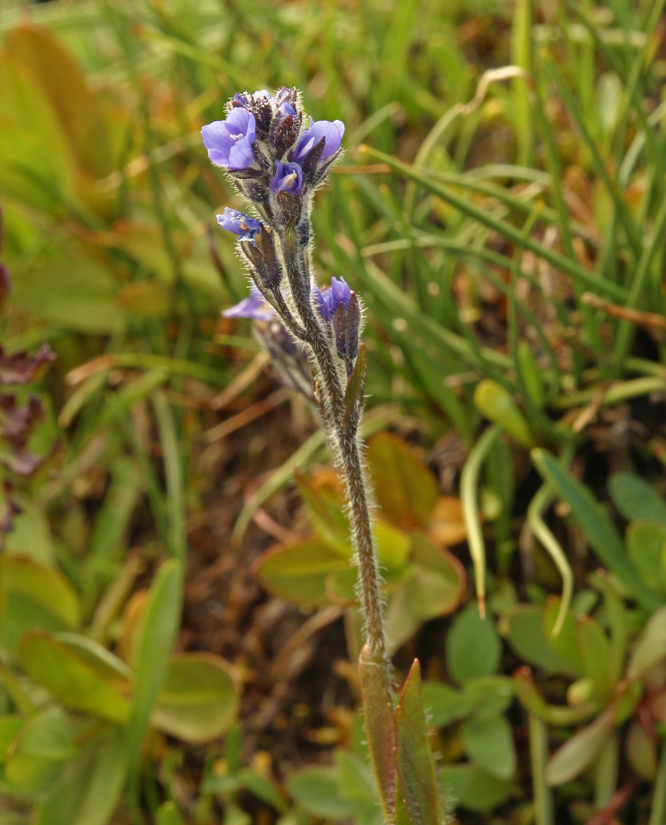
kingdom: Plantae
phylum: Tracheophyta
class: Magnoliopsida
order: Lamiales
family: Plantaginaceae
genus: Veronica
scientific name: Veronica wormskjoldii
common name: American alpine speedwell
